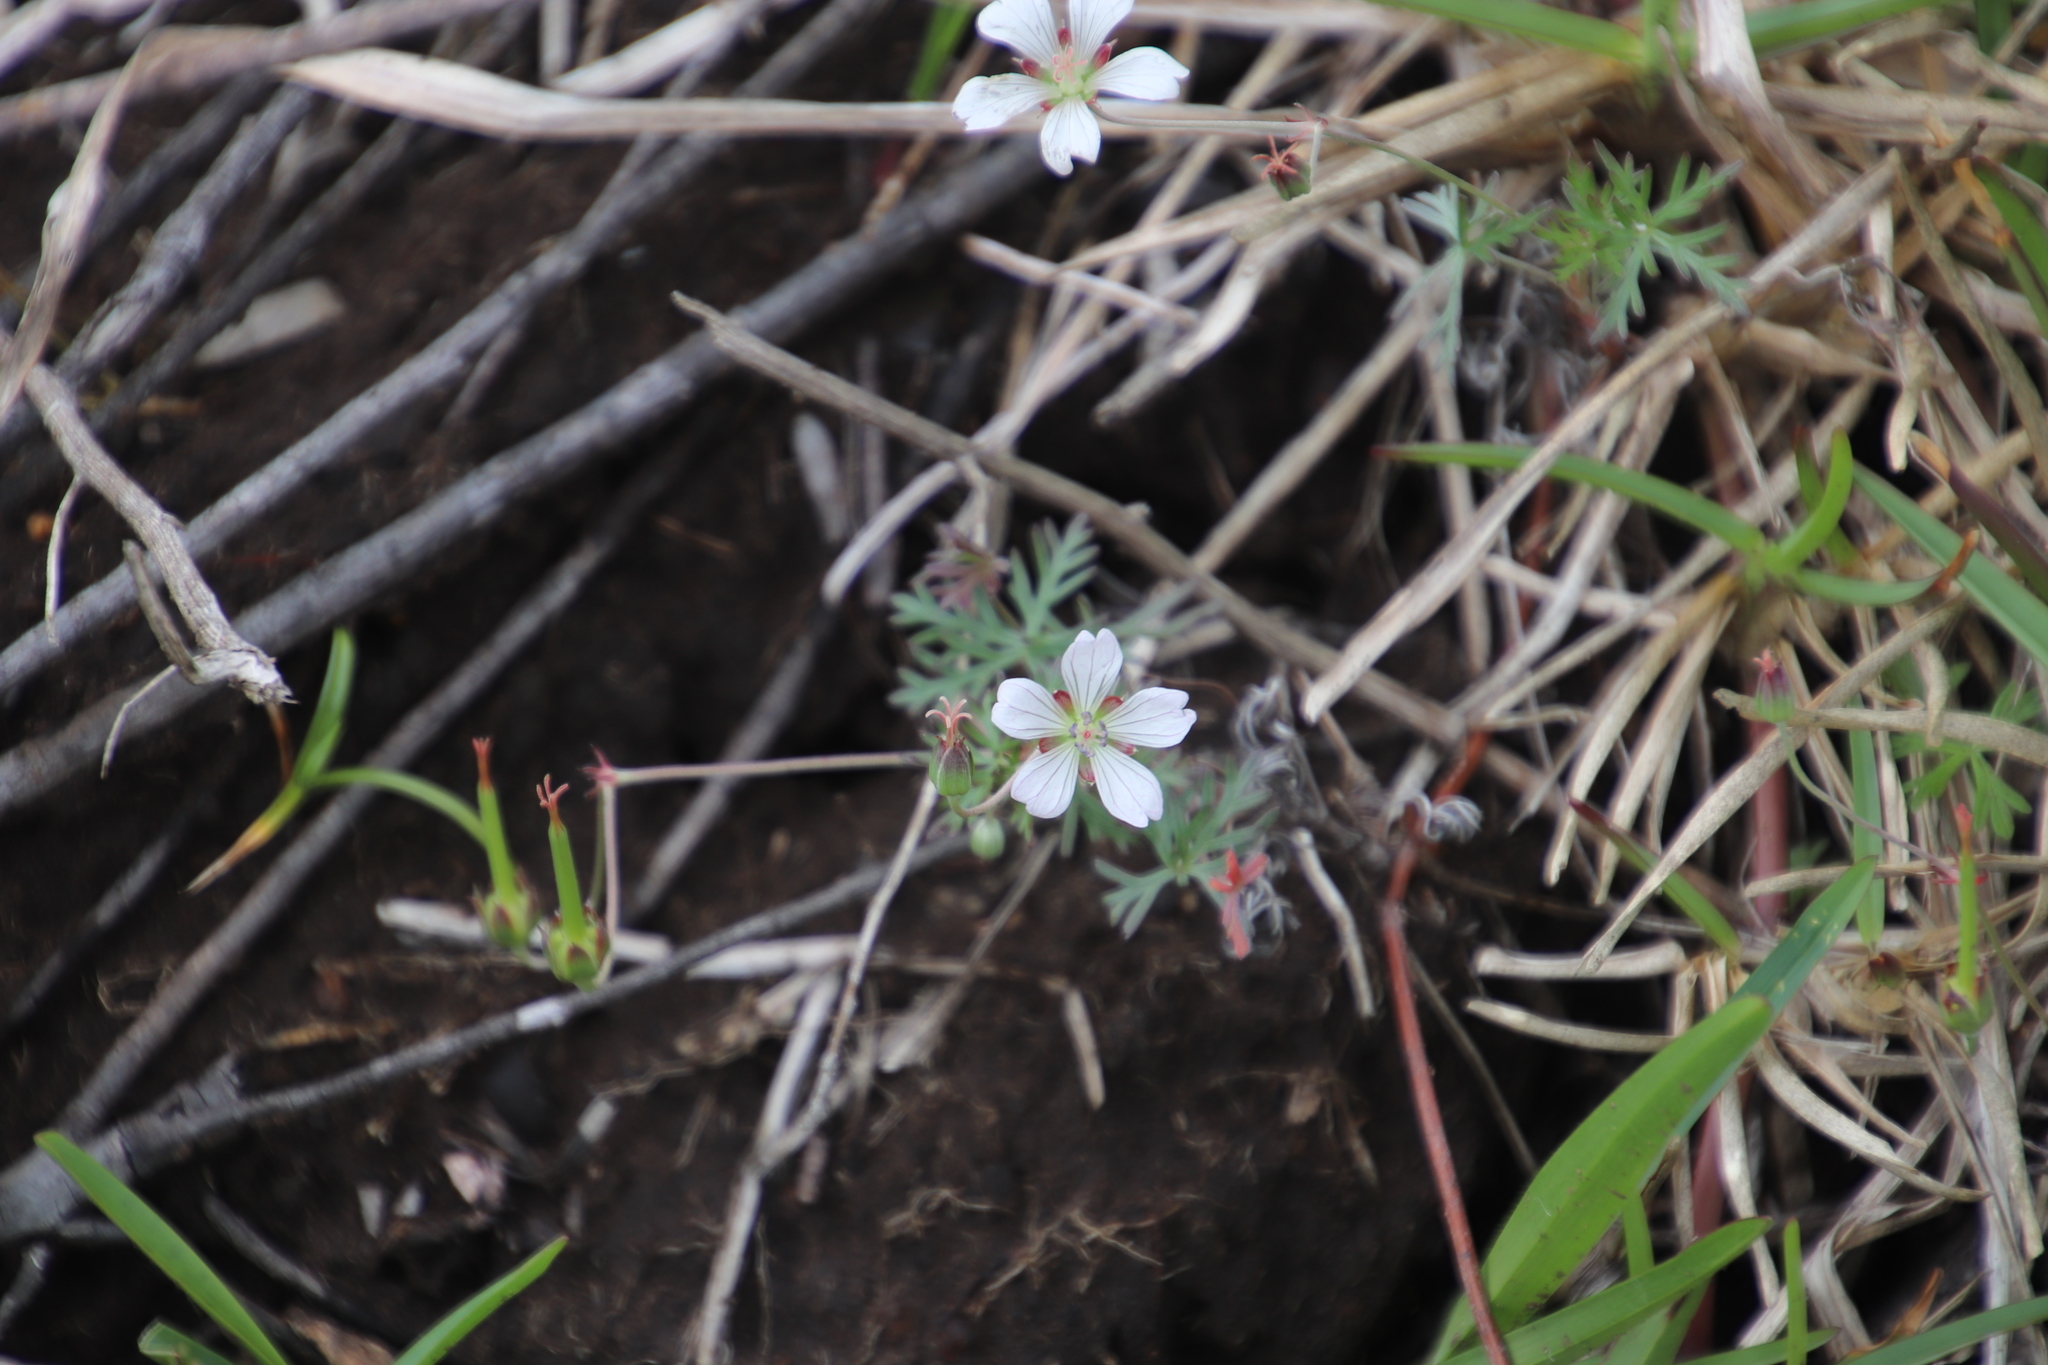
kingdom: Plantae
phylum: Tracheophyta
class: Magnoliopsida
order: Geraniales
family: Geraniaceae
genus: Geranium
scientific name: Geranium incanum
